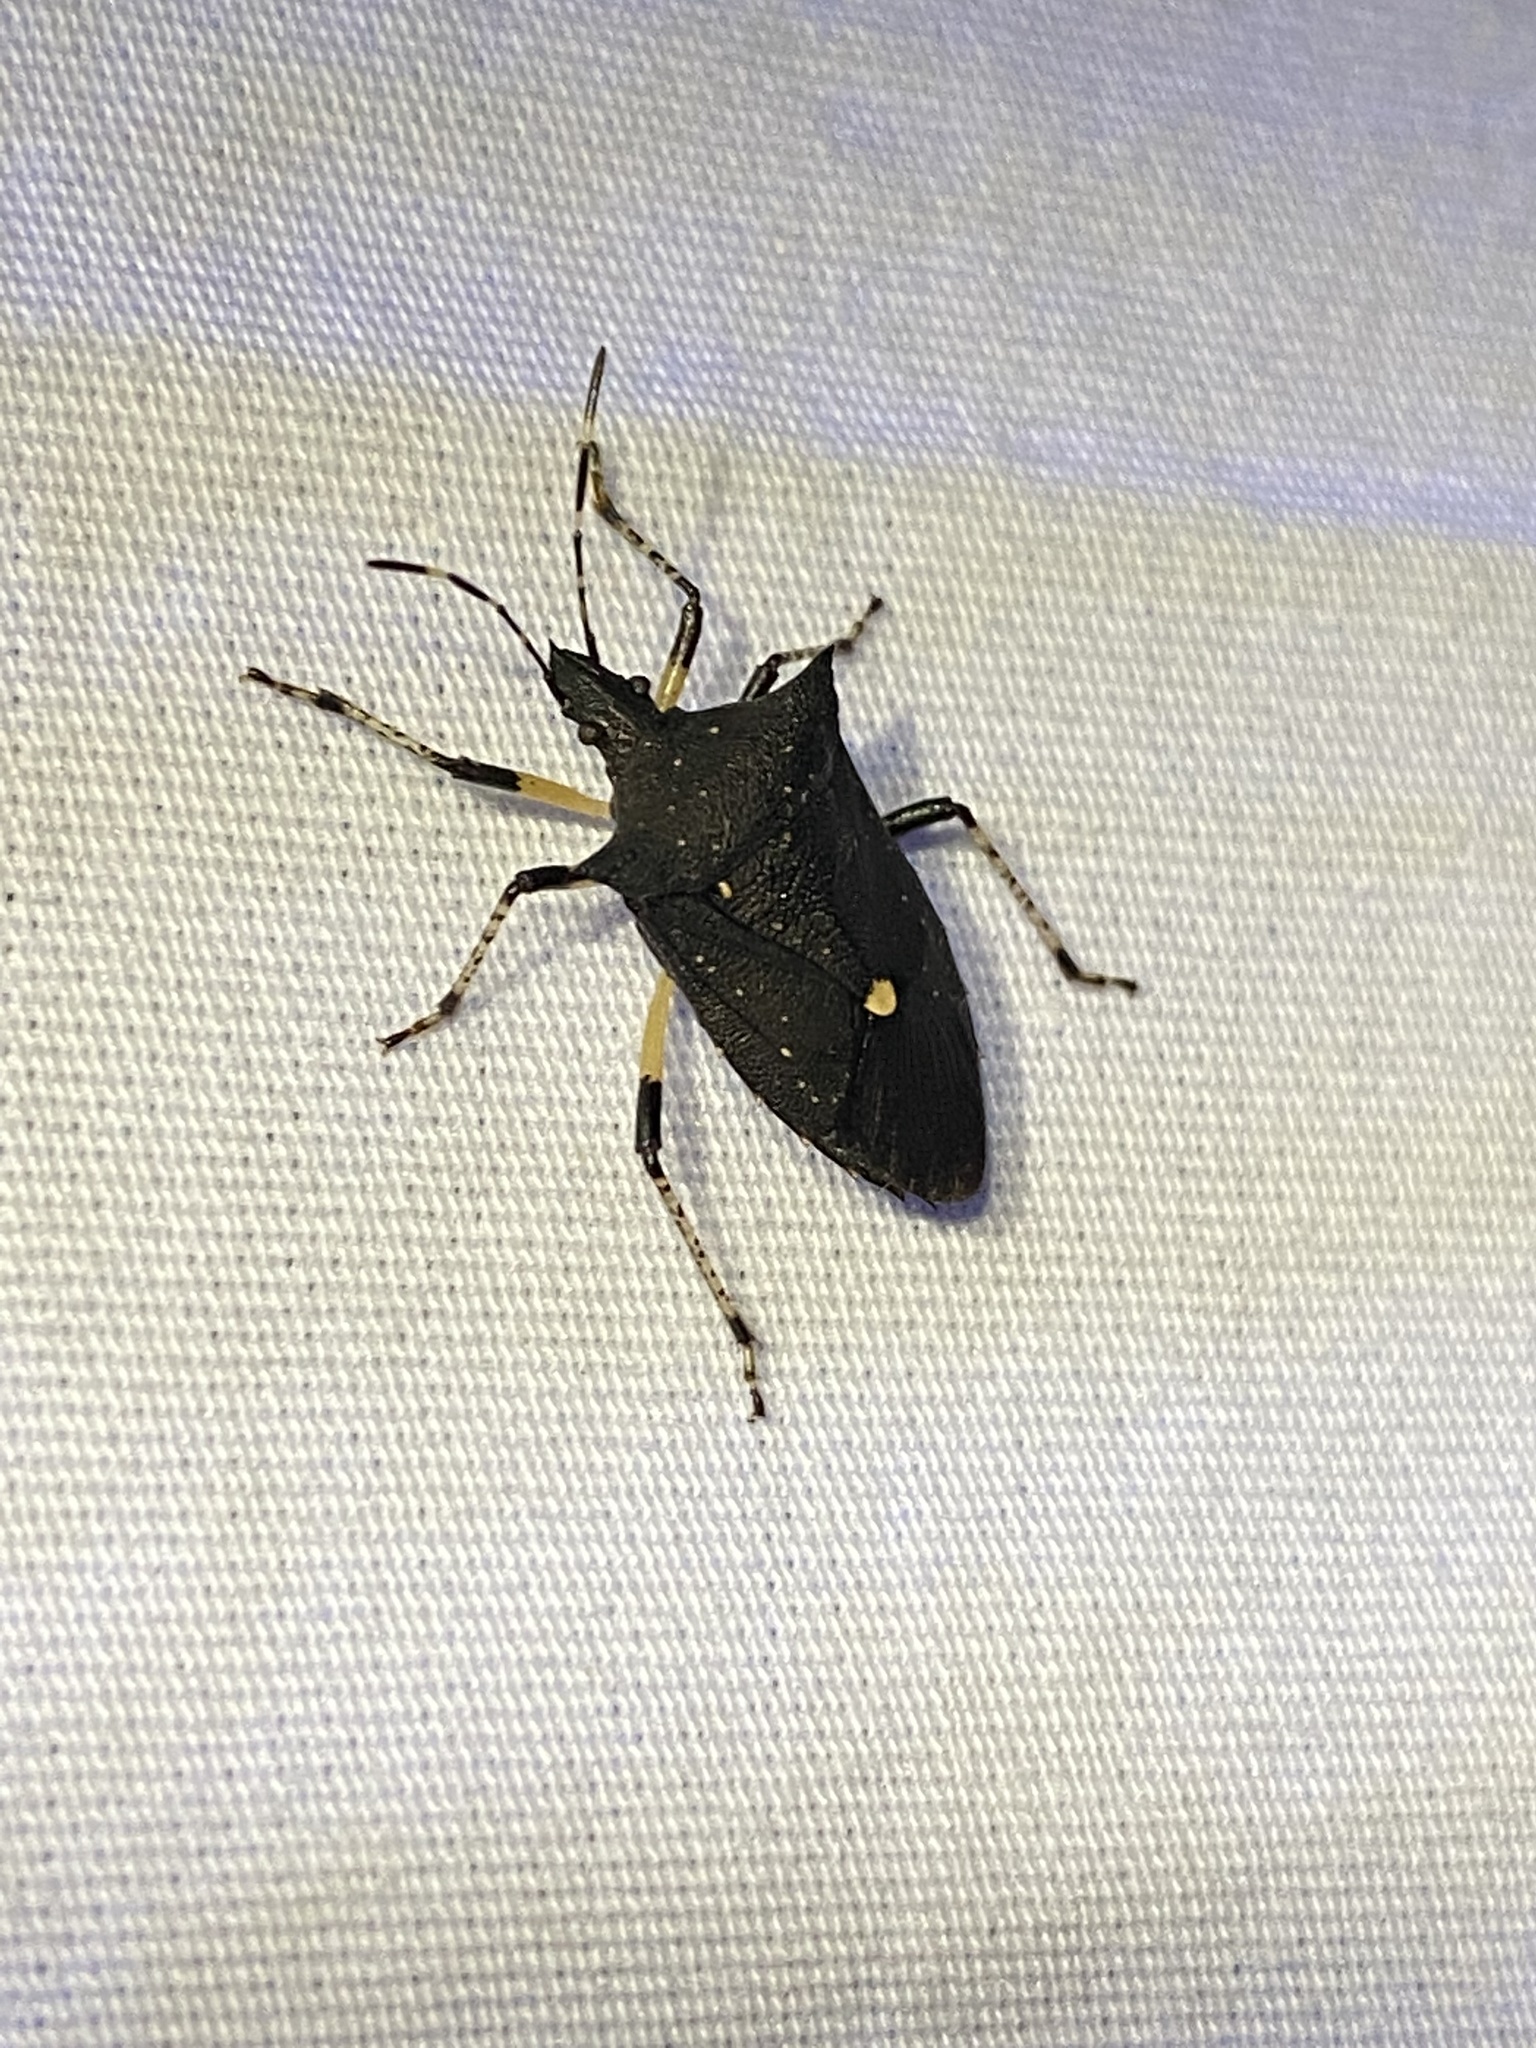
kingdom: Animalia
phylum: Arthropoda
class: Insecta
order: Hemiptera
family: Pentatomidae
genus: Proxys
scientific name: Proxys punctulatus
